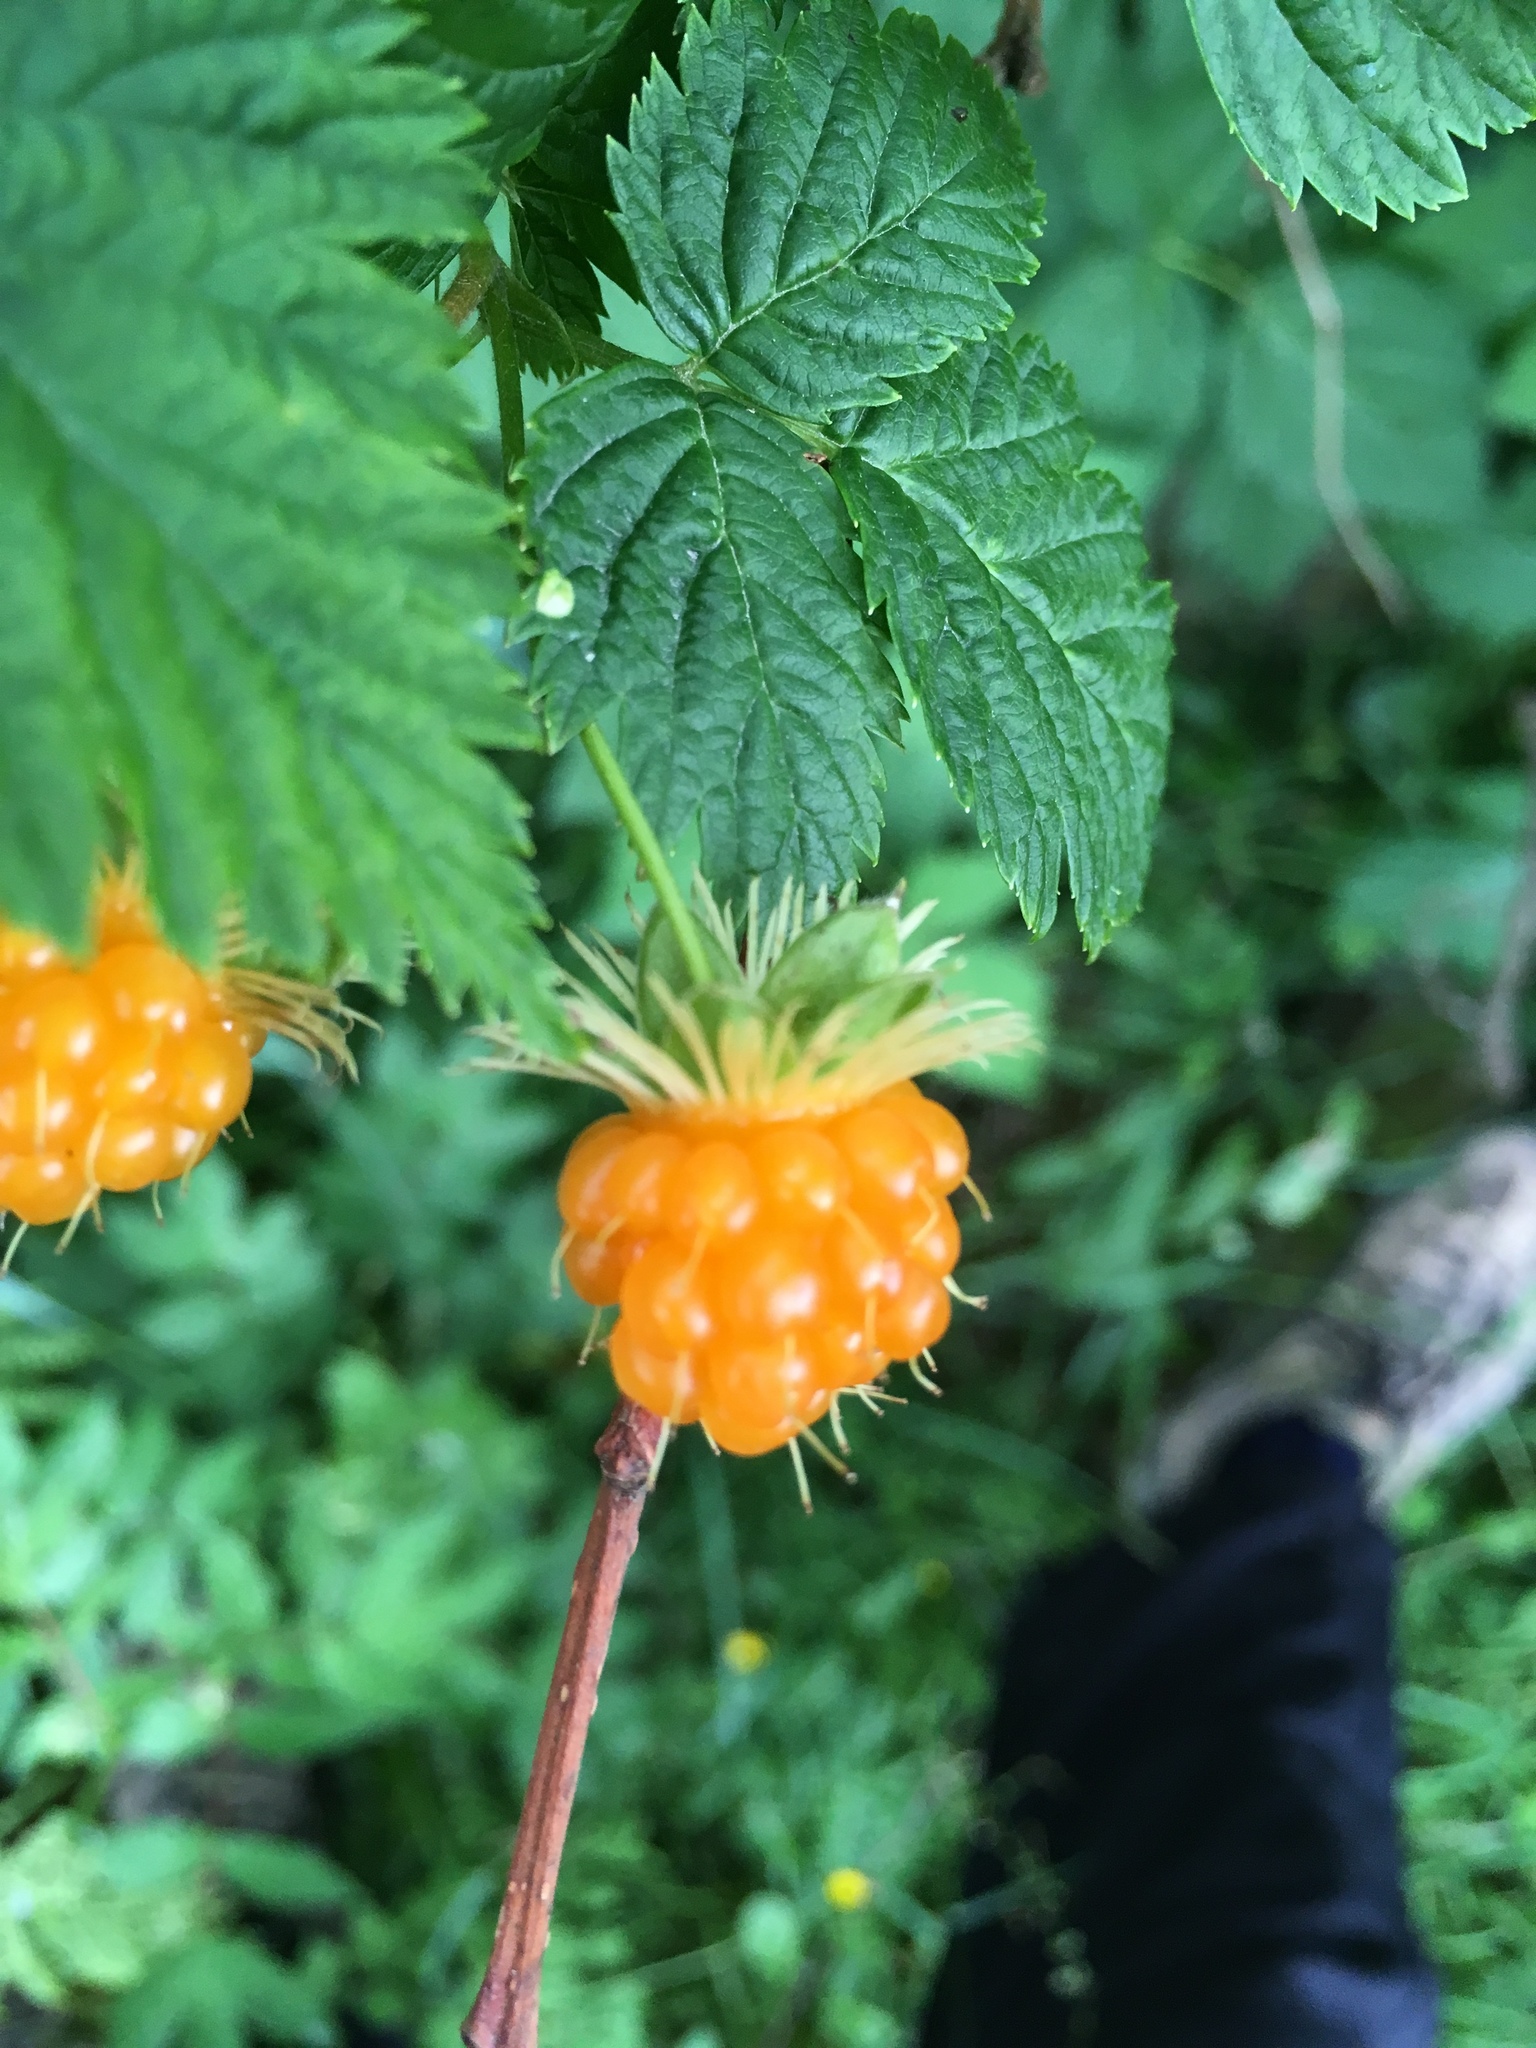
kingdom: Plantae
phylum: Tracheophyta
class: Magnoliopsida
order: Rosales
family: Rosaceae
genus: Rubus
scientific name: Rubus spectabilis
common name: Salmonberry
